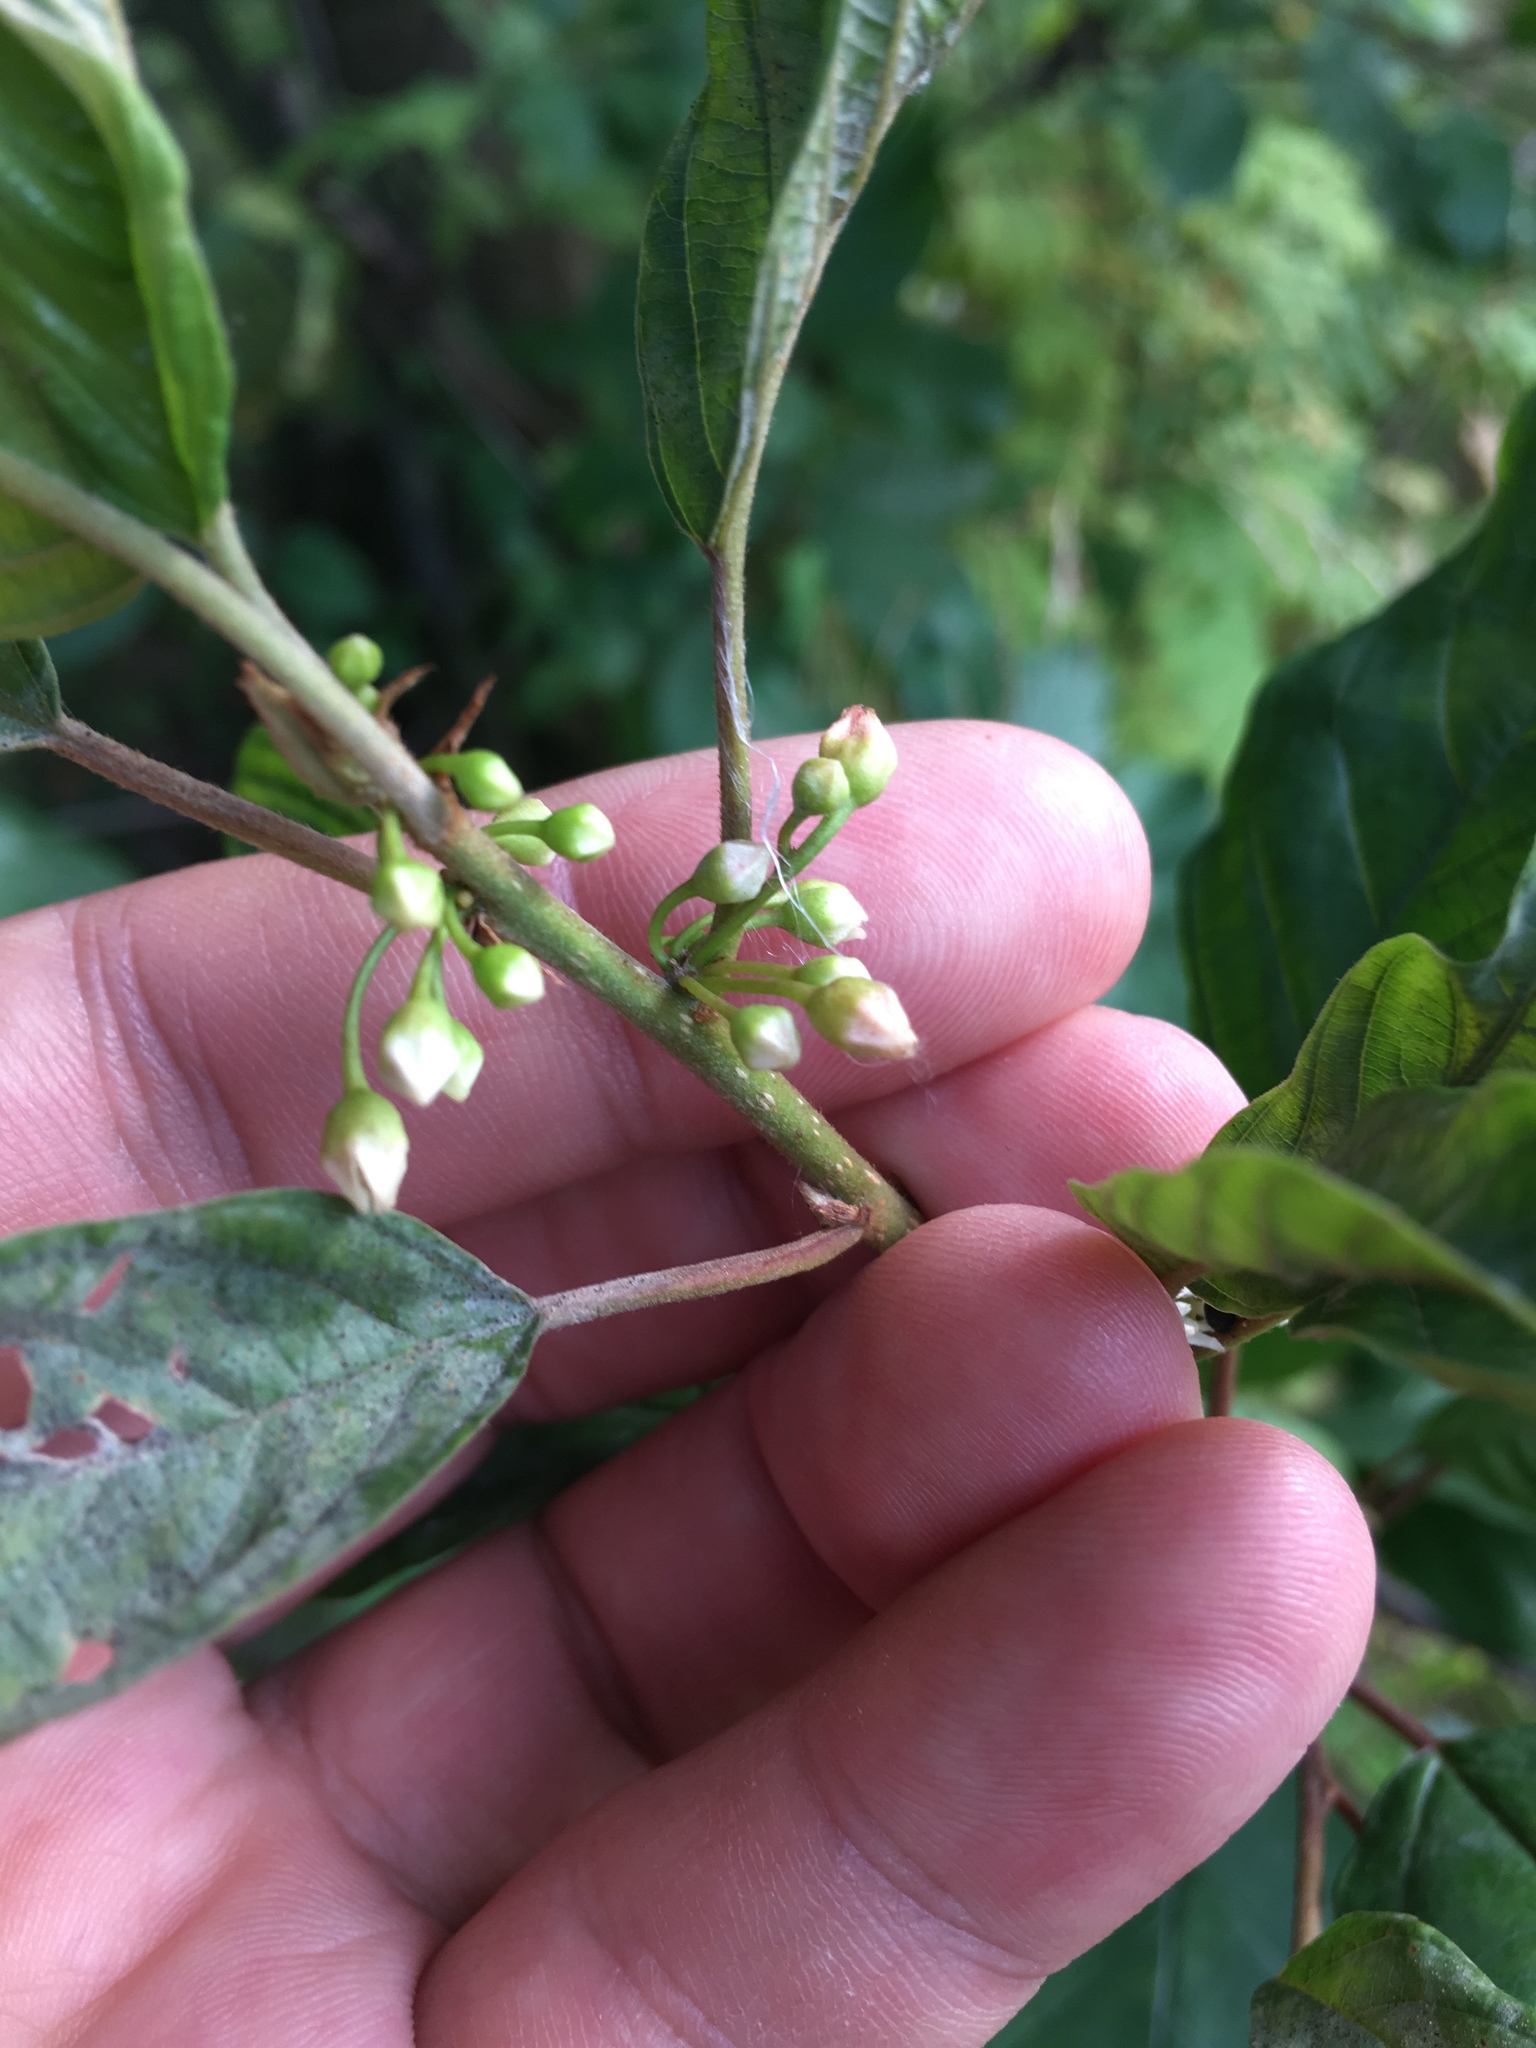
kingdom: Plantae
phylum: Tracheophyta
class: Magnoliopsida
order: Rosales
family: Rhamnaceae
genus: Frangula
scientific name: Frangula alnus
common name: Alder buckthorn
